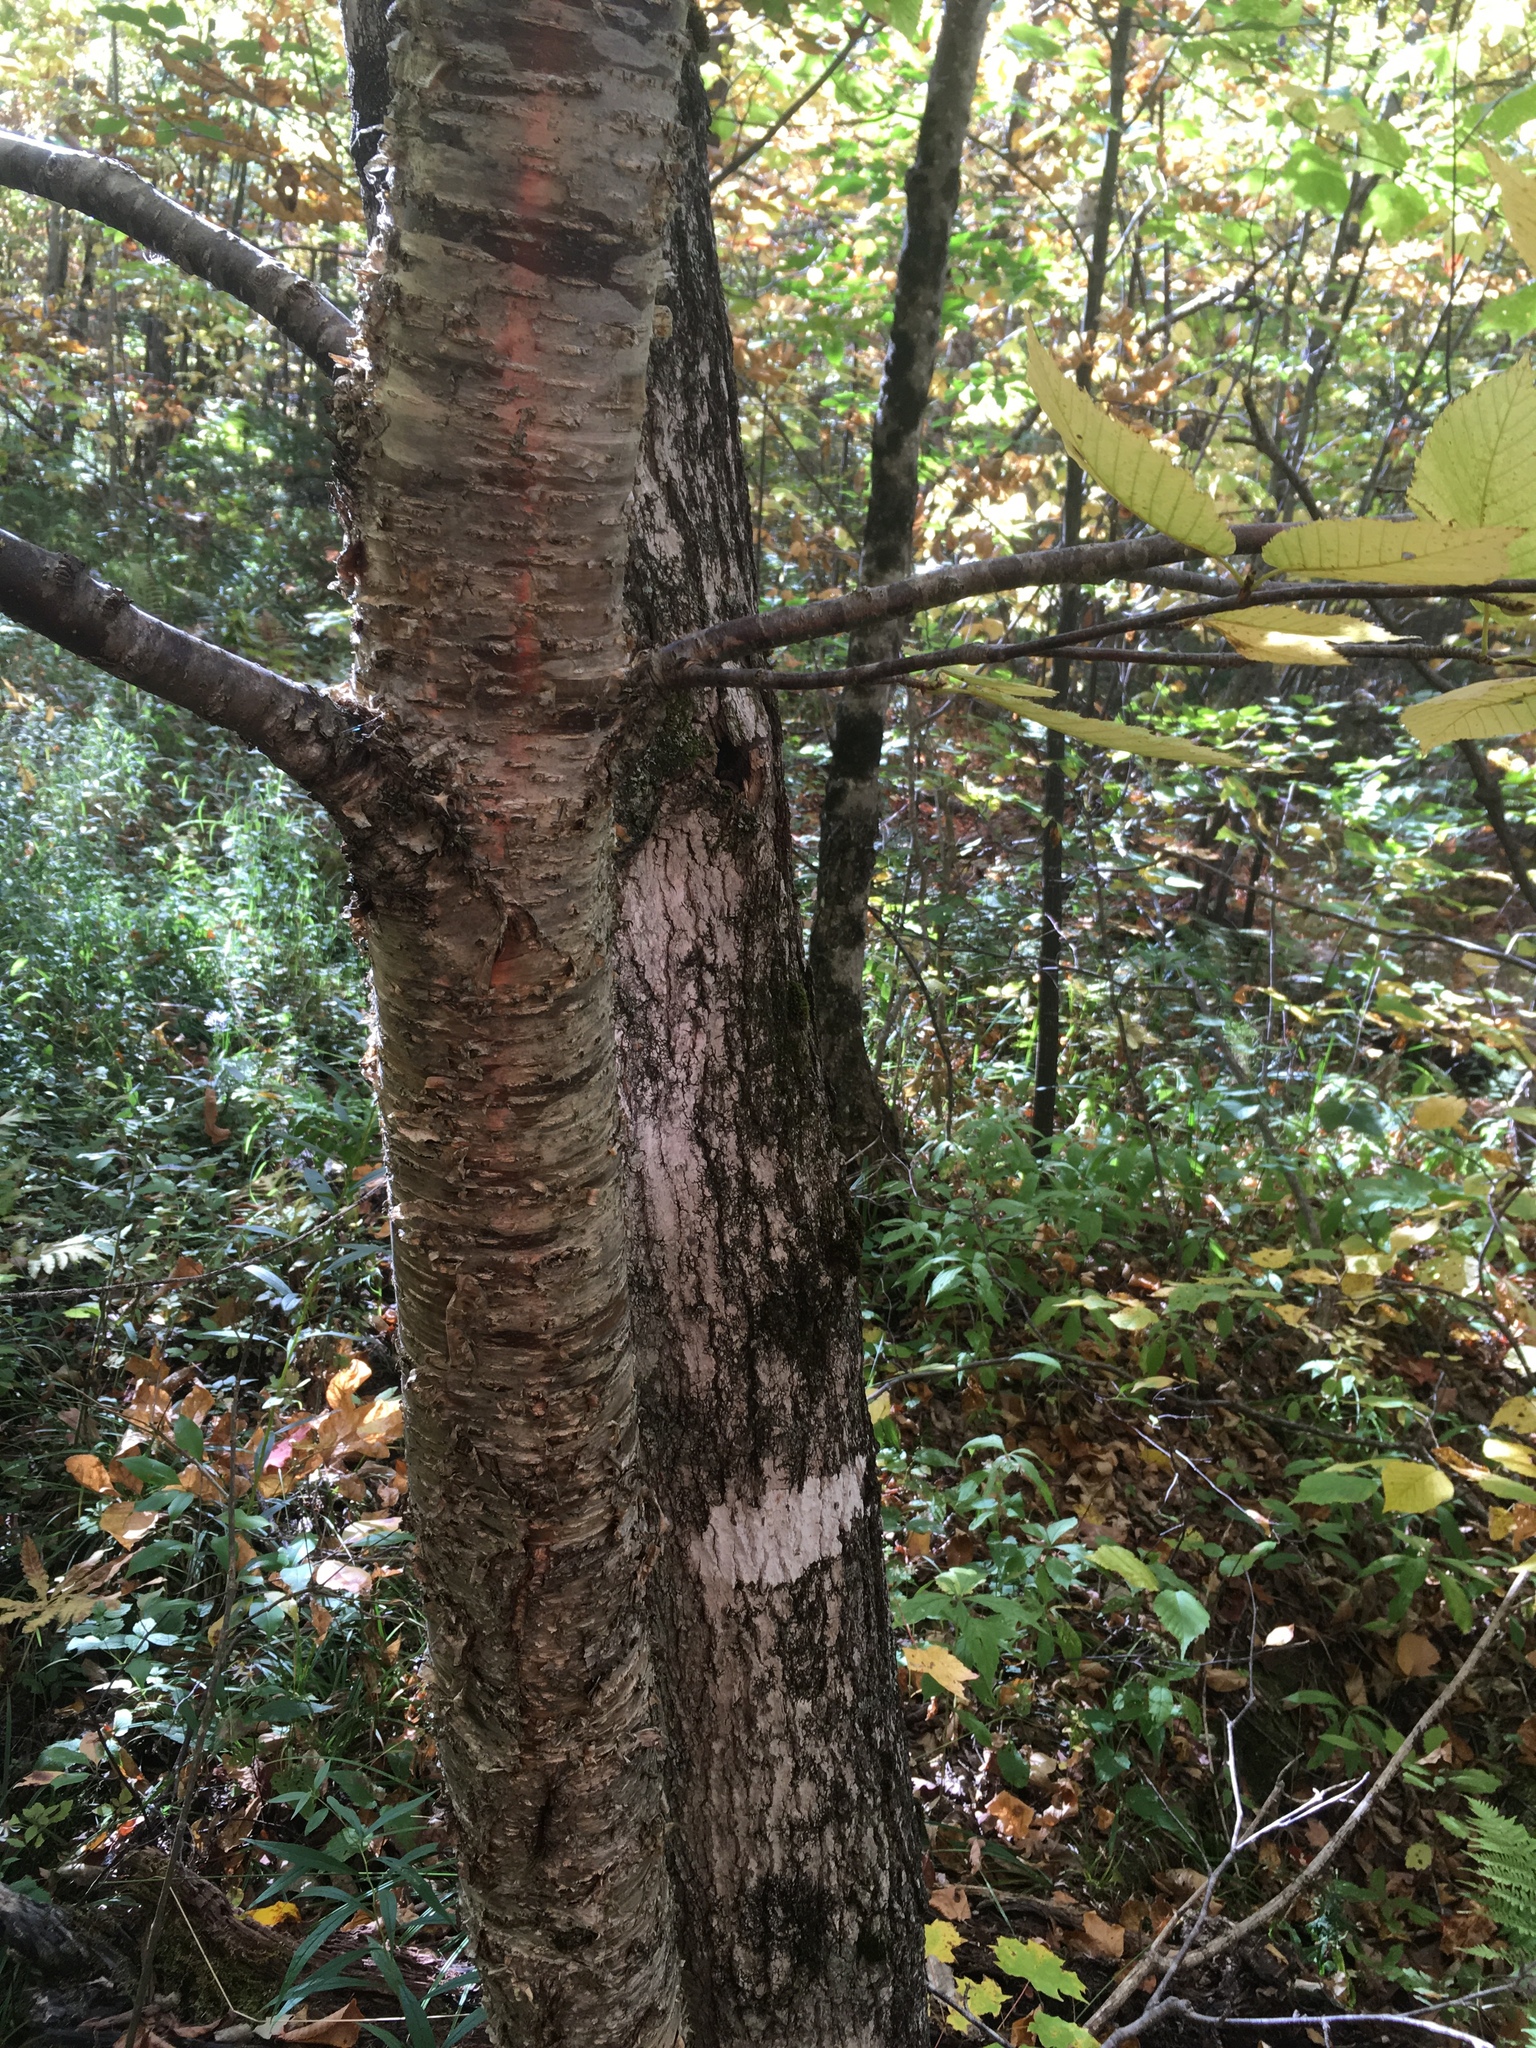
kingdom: Plantae
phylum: Tracheophyta
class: Magnoliopsida
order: Fagales
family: Betulaceae
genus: Betula
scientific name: Betula alleghaniensis
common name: Yellow birch
